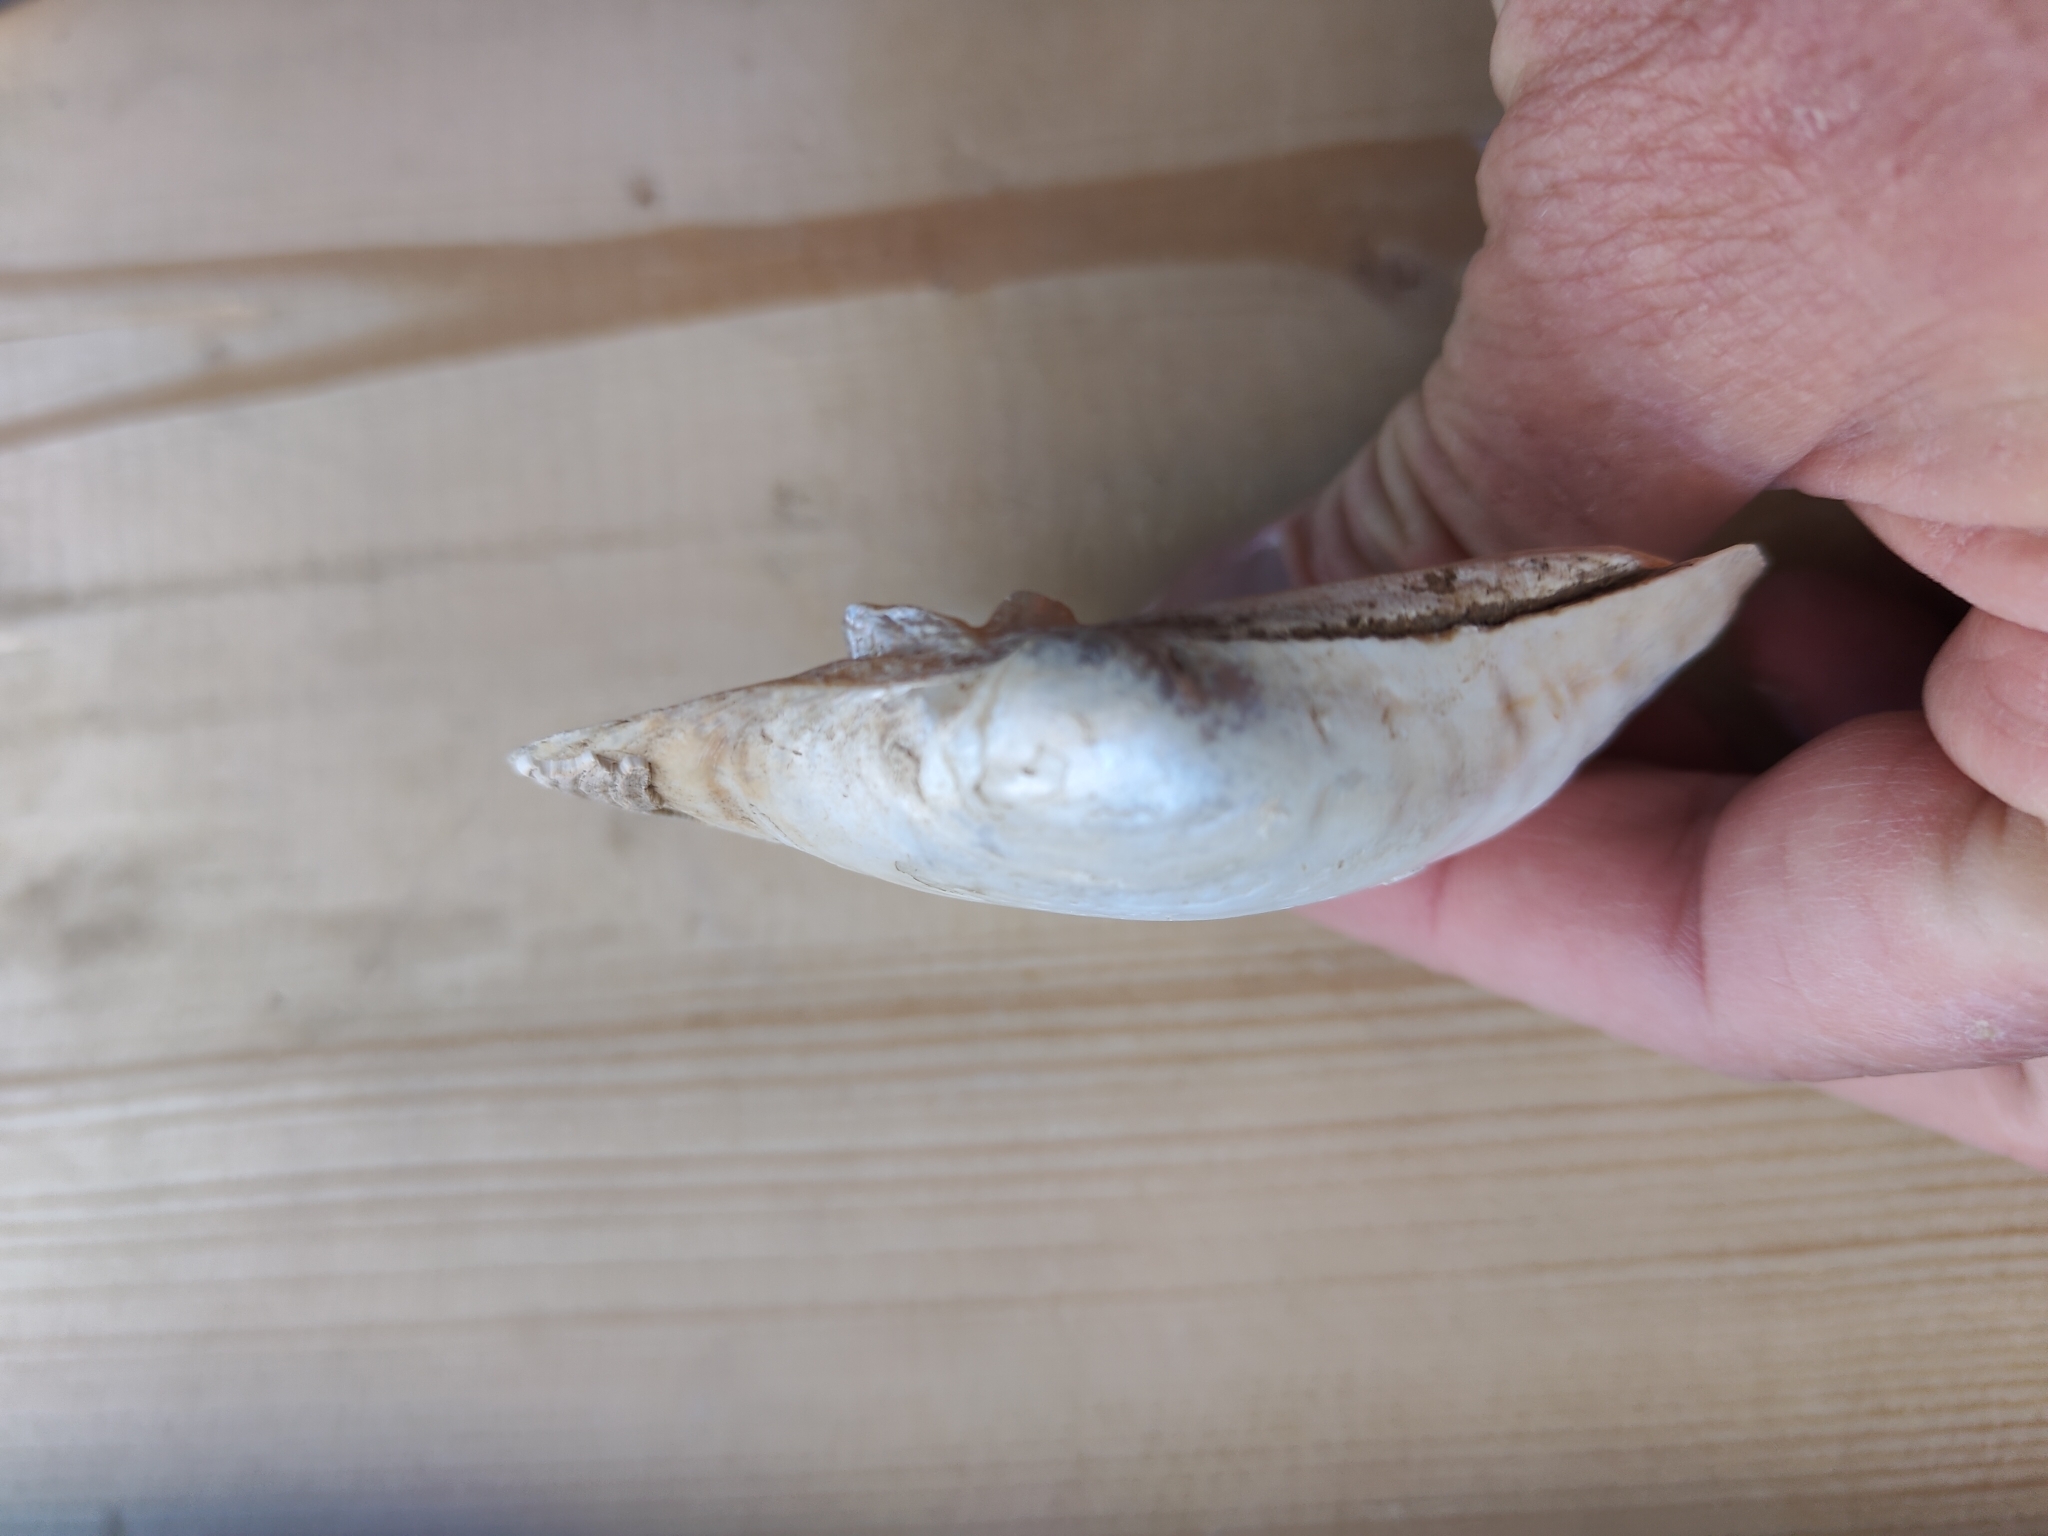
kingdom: Animalia
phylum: Mollusca
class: Bivalvia
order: Unionida
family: Unionidae
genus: Lampsilis
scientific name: Lampsilis cardium
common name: Plain pocketbook
